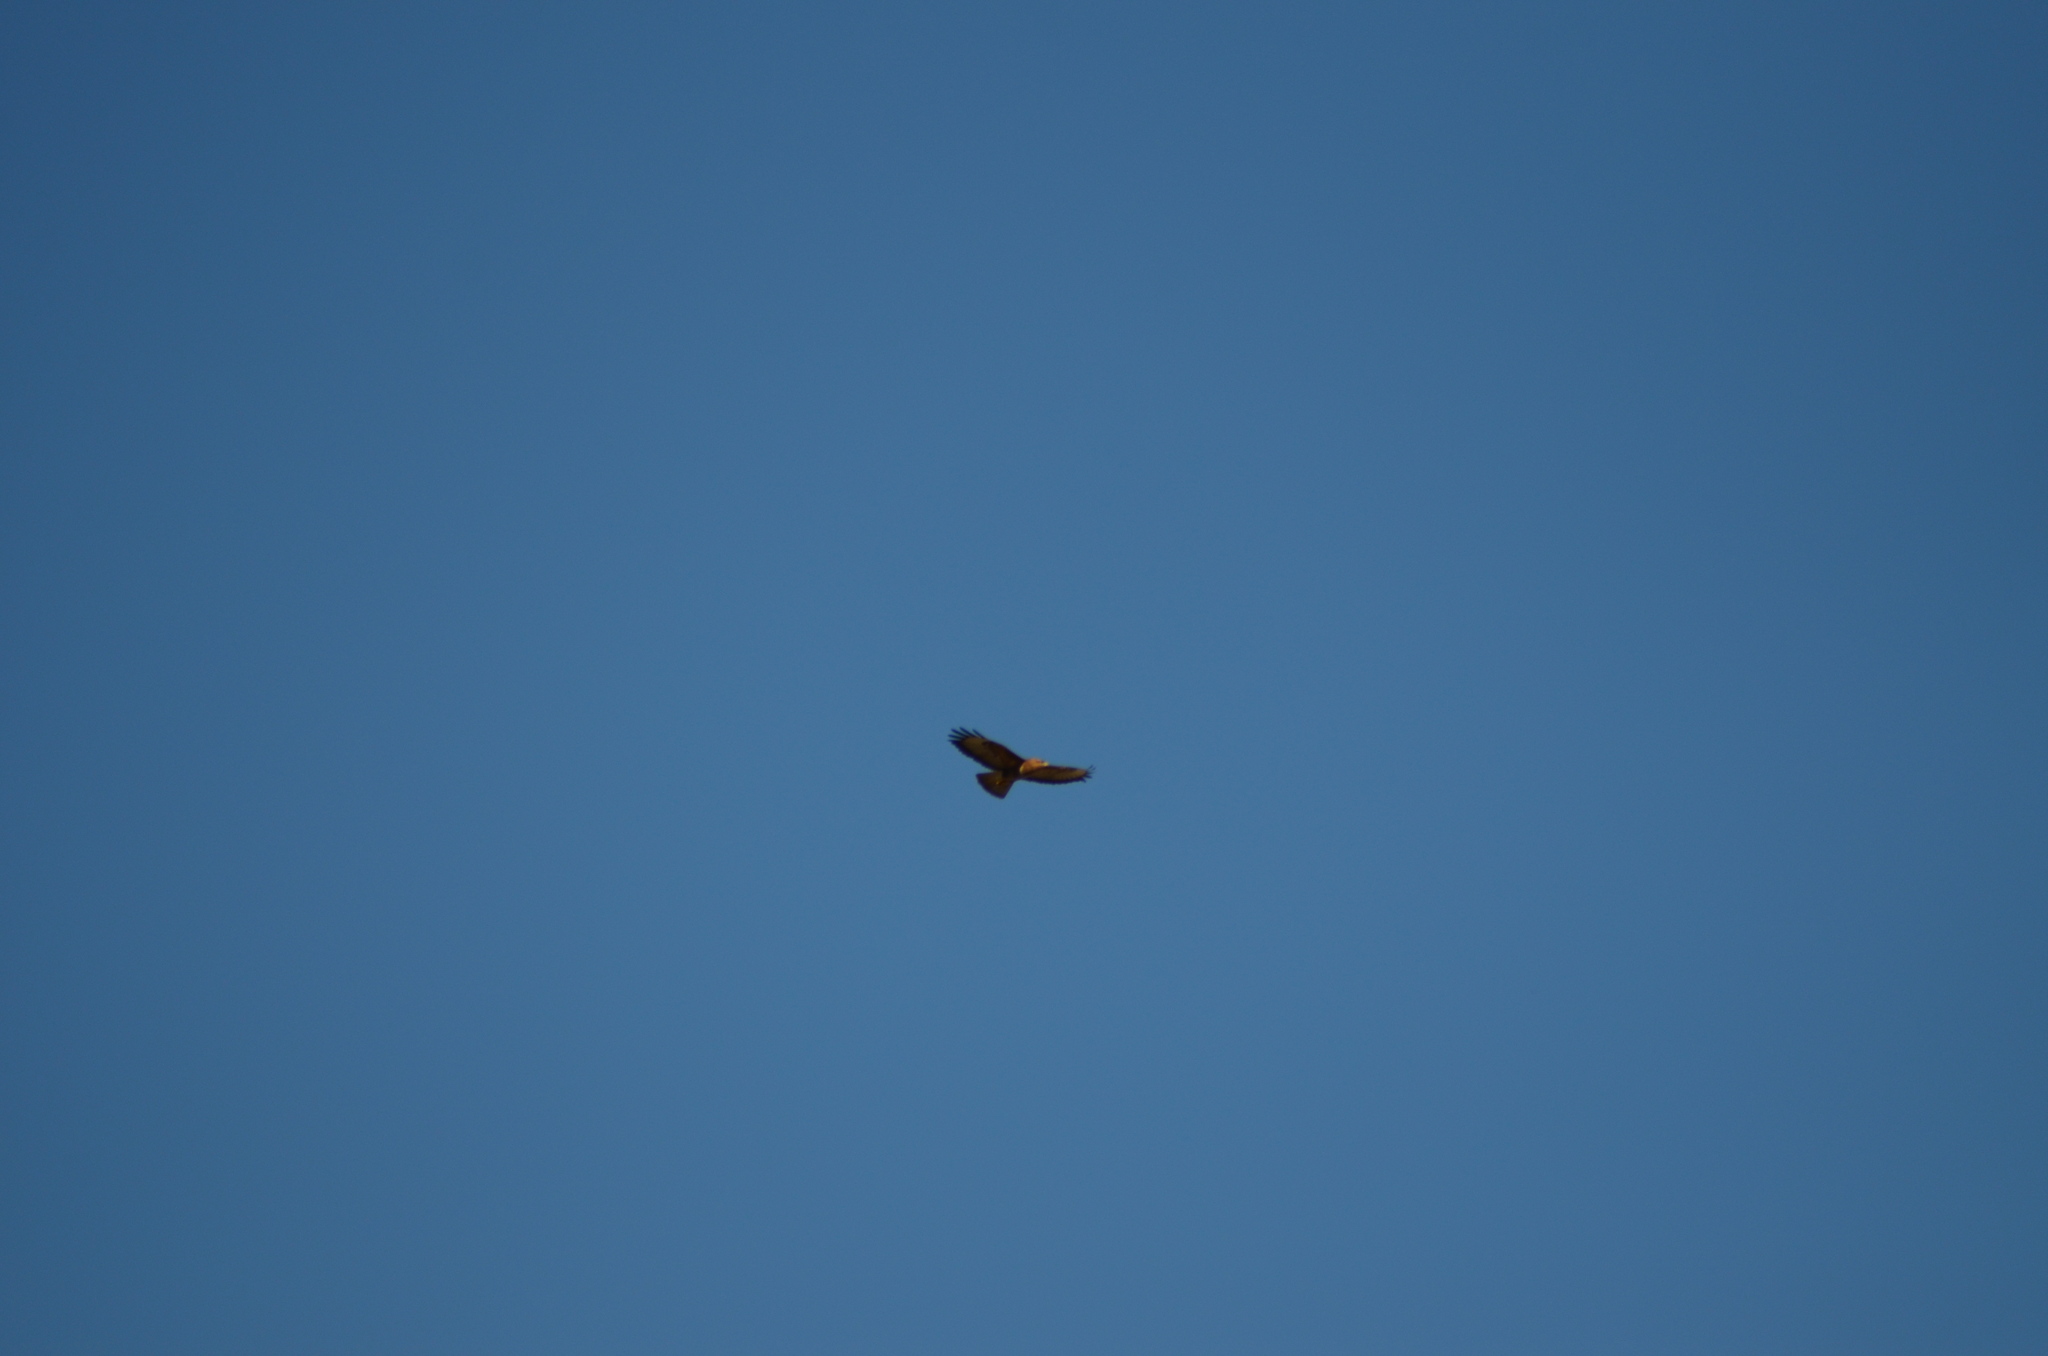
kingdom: Animalia
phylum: Chordata
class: Aves
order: Accipitriformes
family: Accipitridae
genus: Buteo
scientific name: Buteo buteo
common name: Common buzzard
